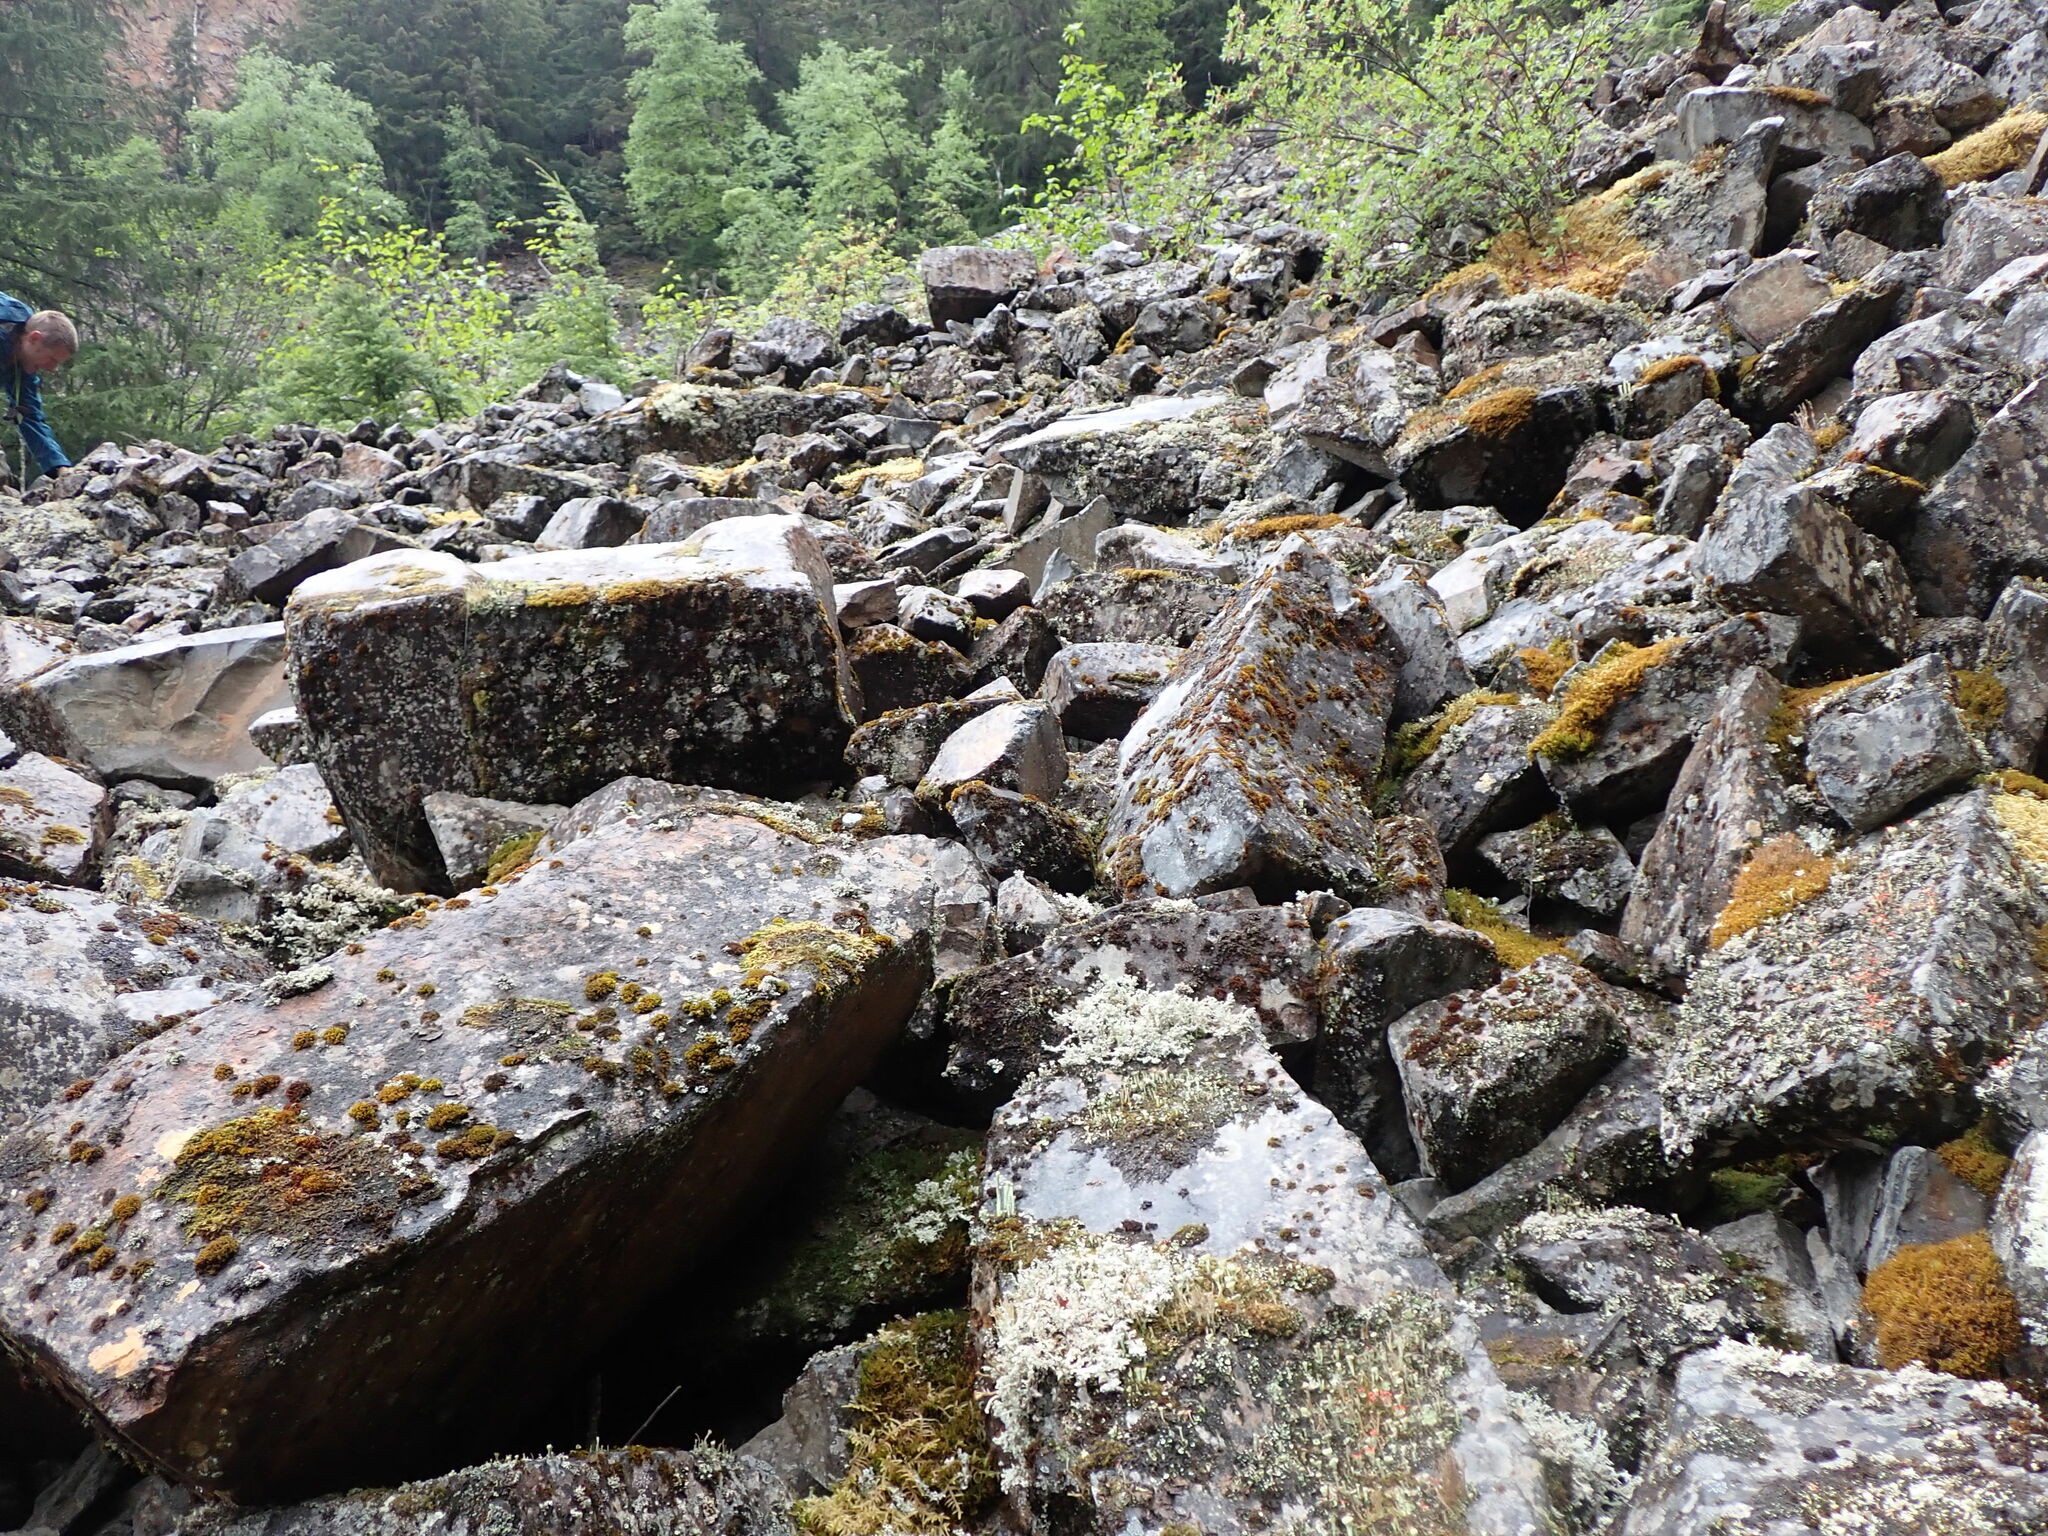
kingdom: Plantae
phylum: Marchantiophyta
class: Jungermanniopsida
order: Ptilidiales
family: Ptilidiaceae
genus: Ptilidium
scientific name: Ptilidium ciliare
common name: Ciliate fringewort
